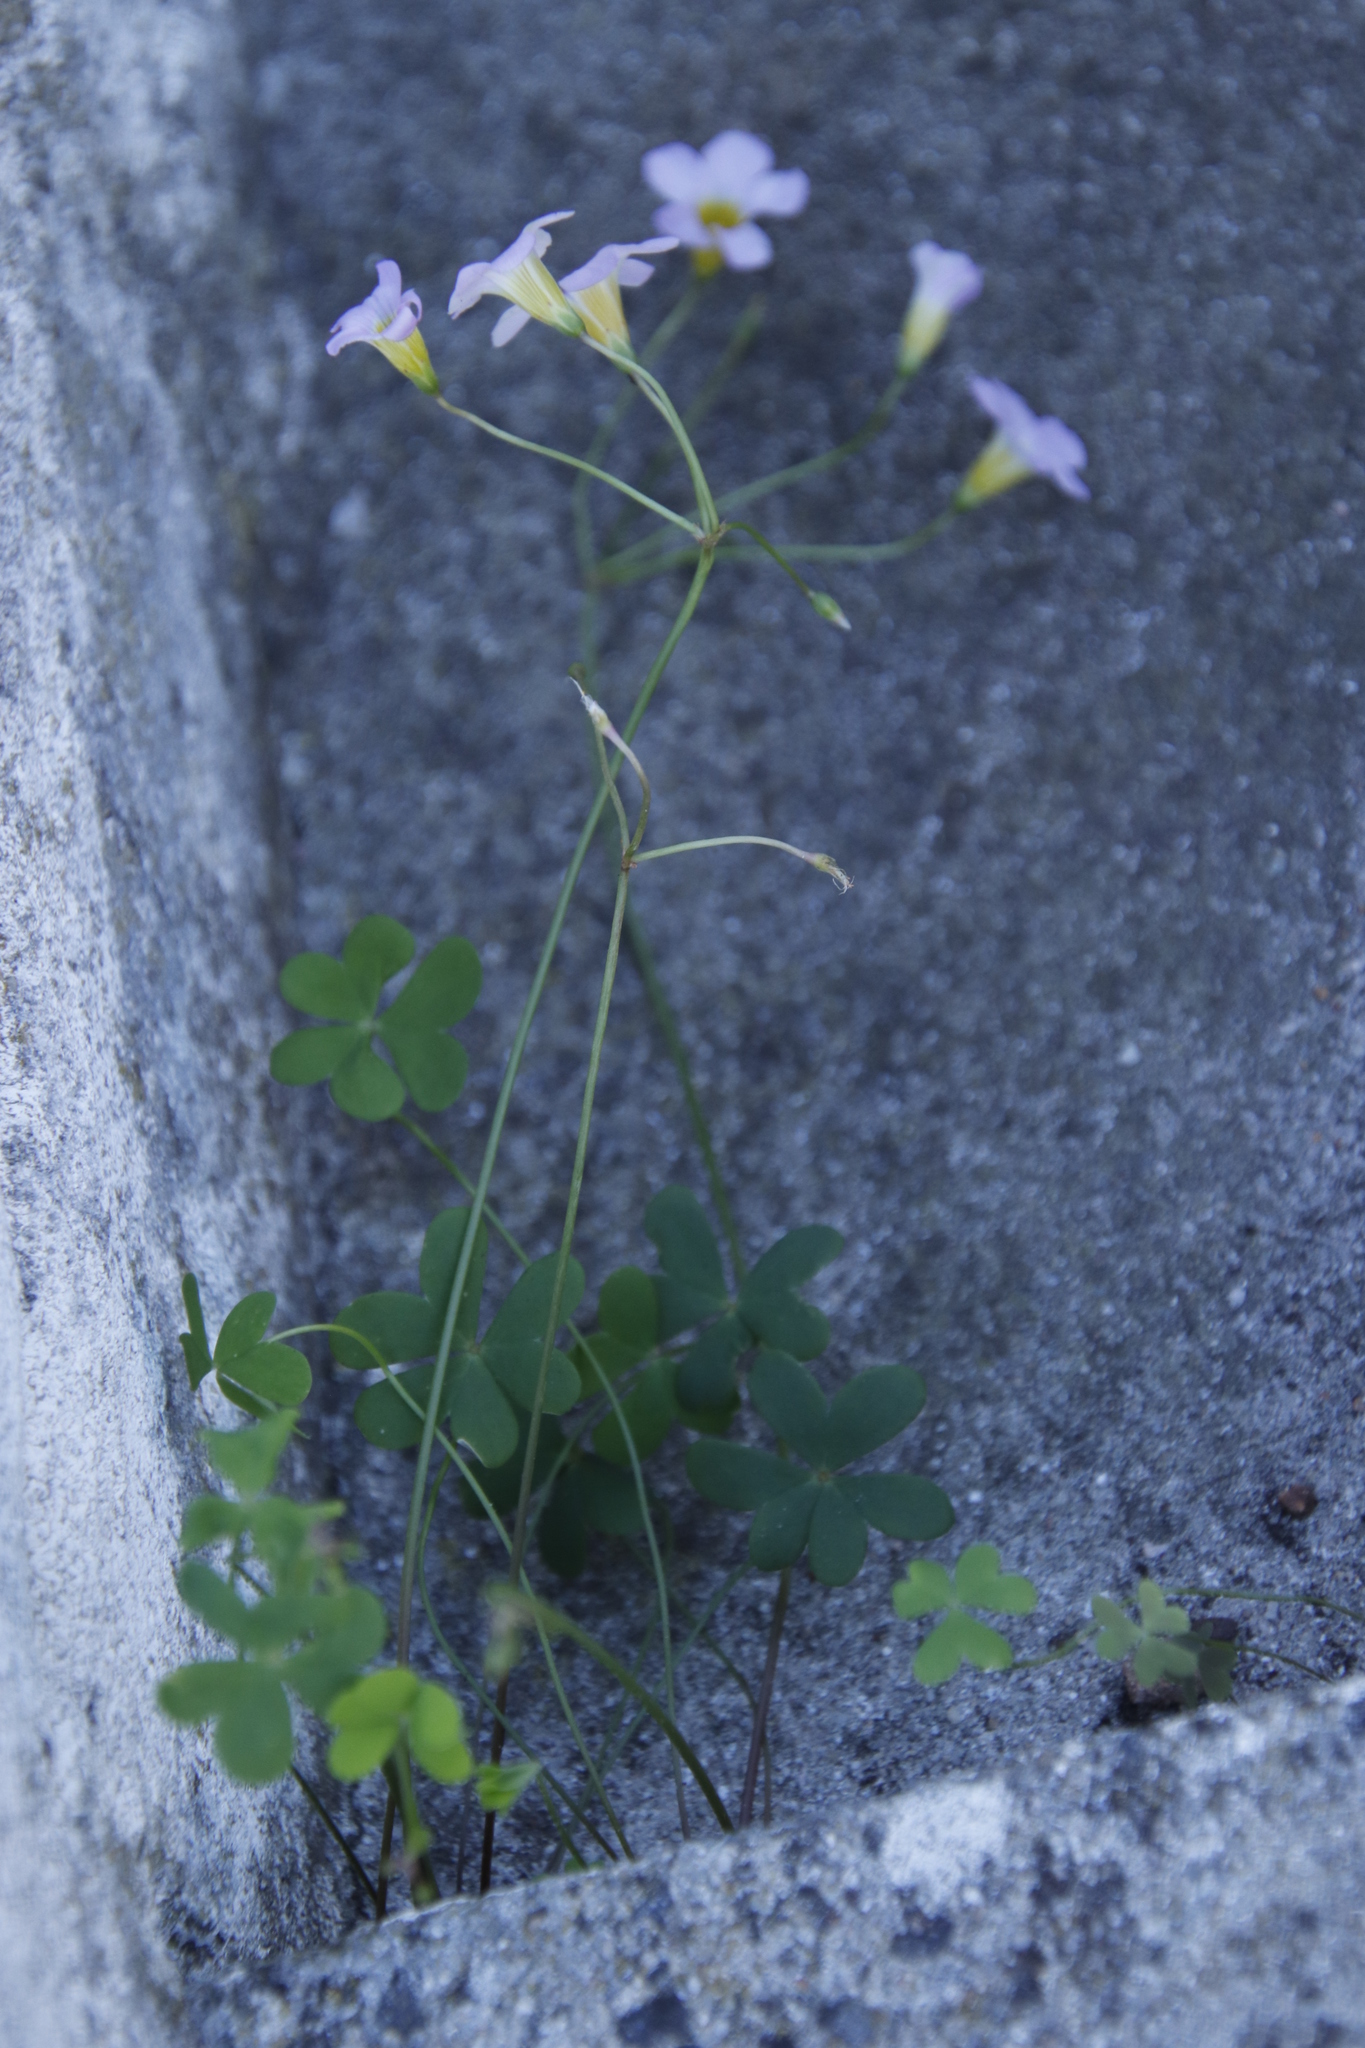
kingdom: Plantae
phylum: Tracheophyta
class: Magnoliopsida
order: Oxalidales
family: Oxalidaceae
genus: Oxalis
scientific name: Oxalis caprina
